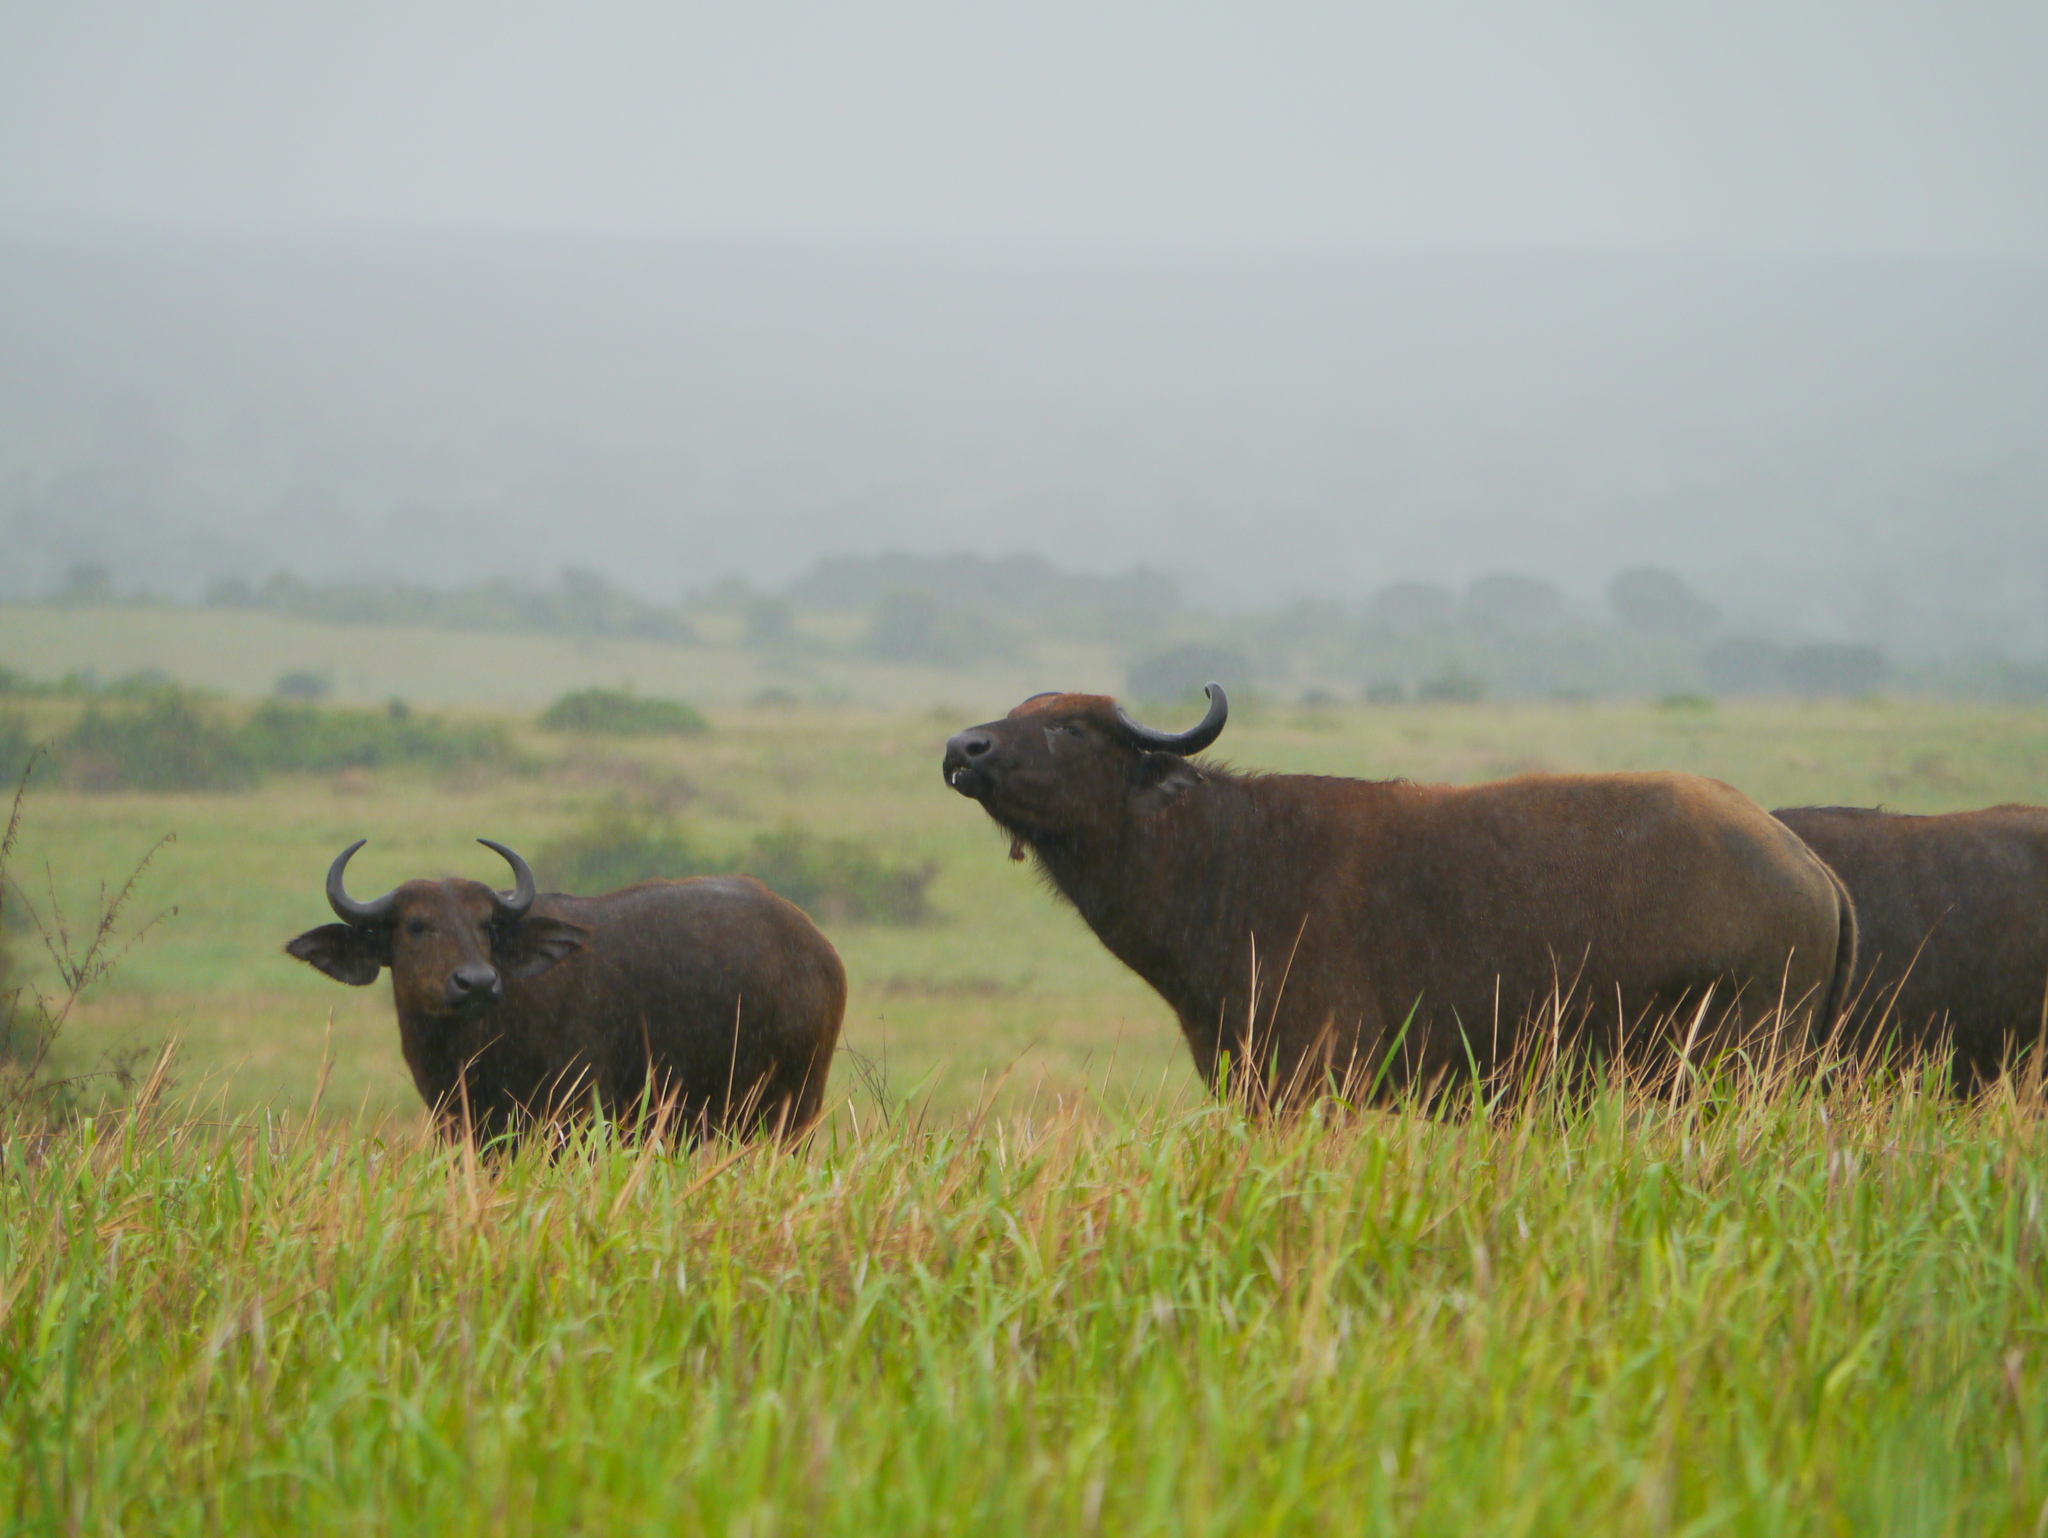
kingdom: Animalia
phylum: Chordata
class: Mammalia
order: Artiodactyla
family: Bovidae
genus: Syncerus
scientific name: Syncerus caffer
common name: African buffalo
